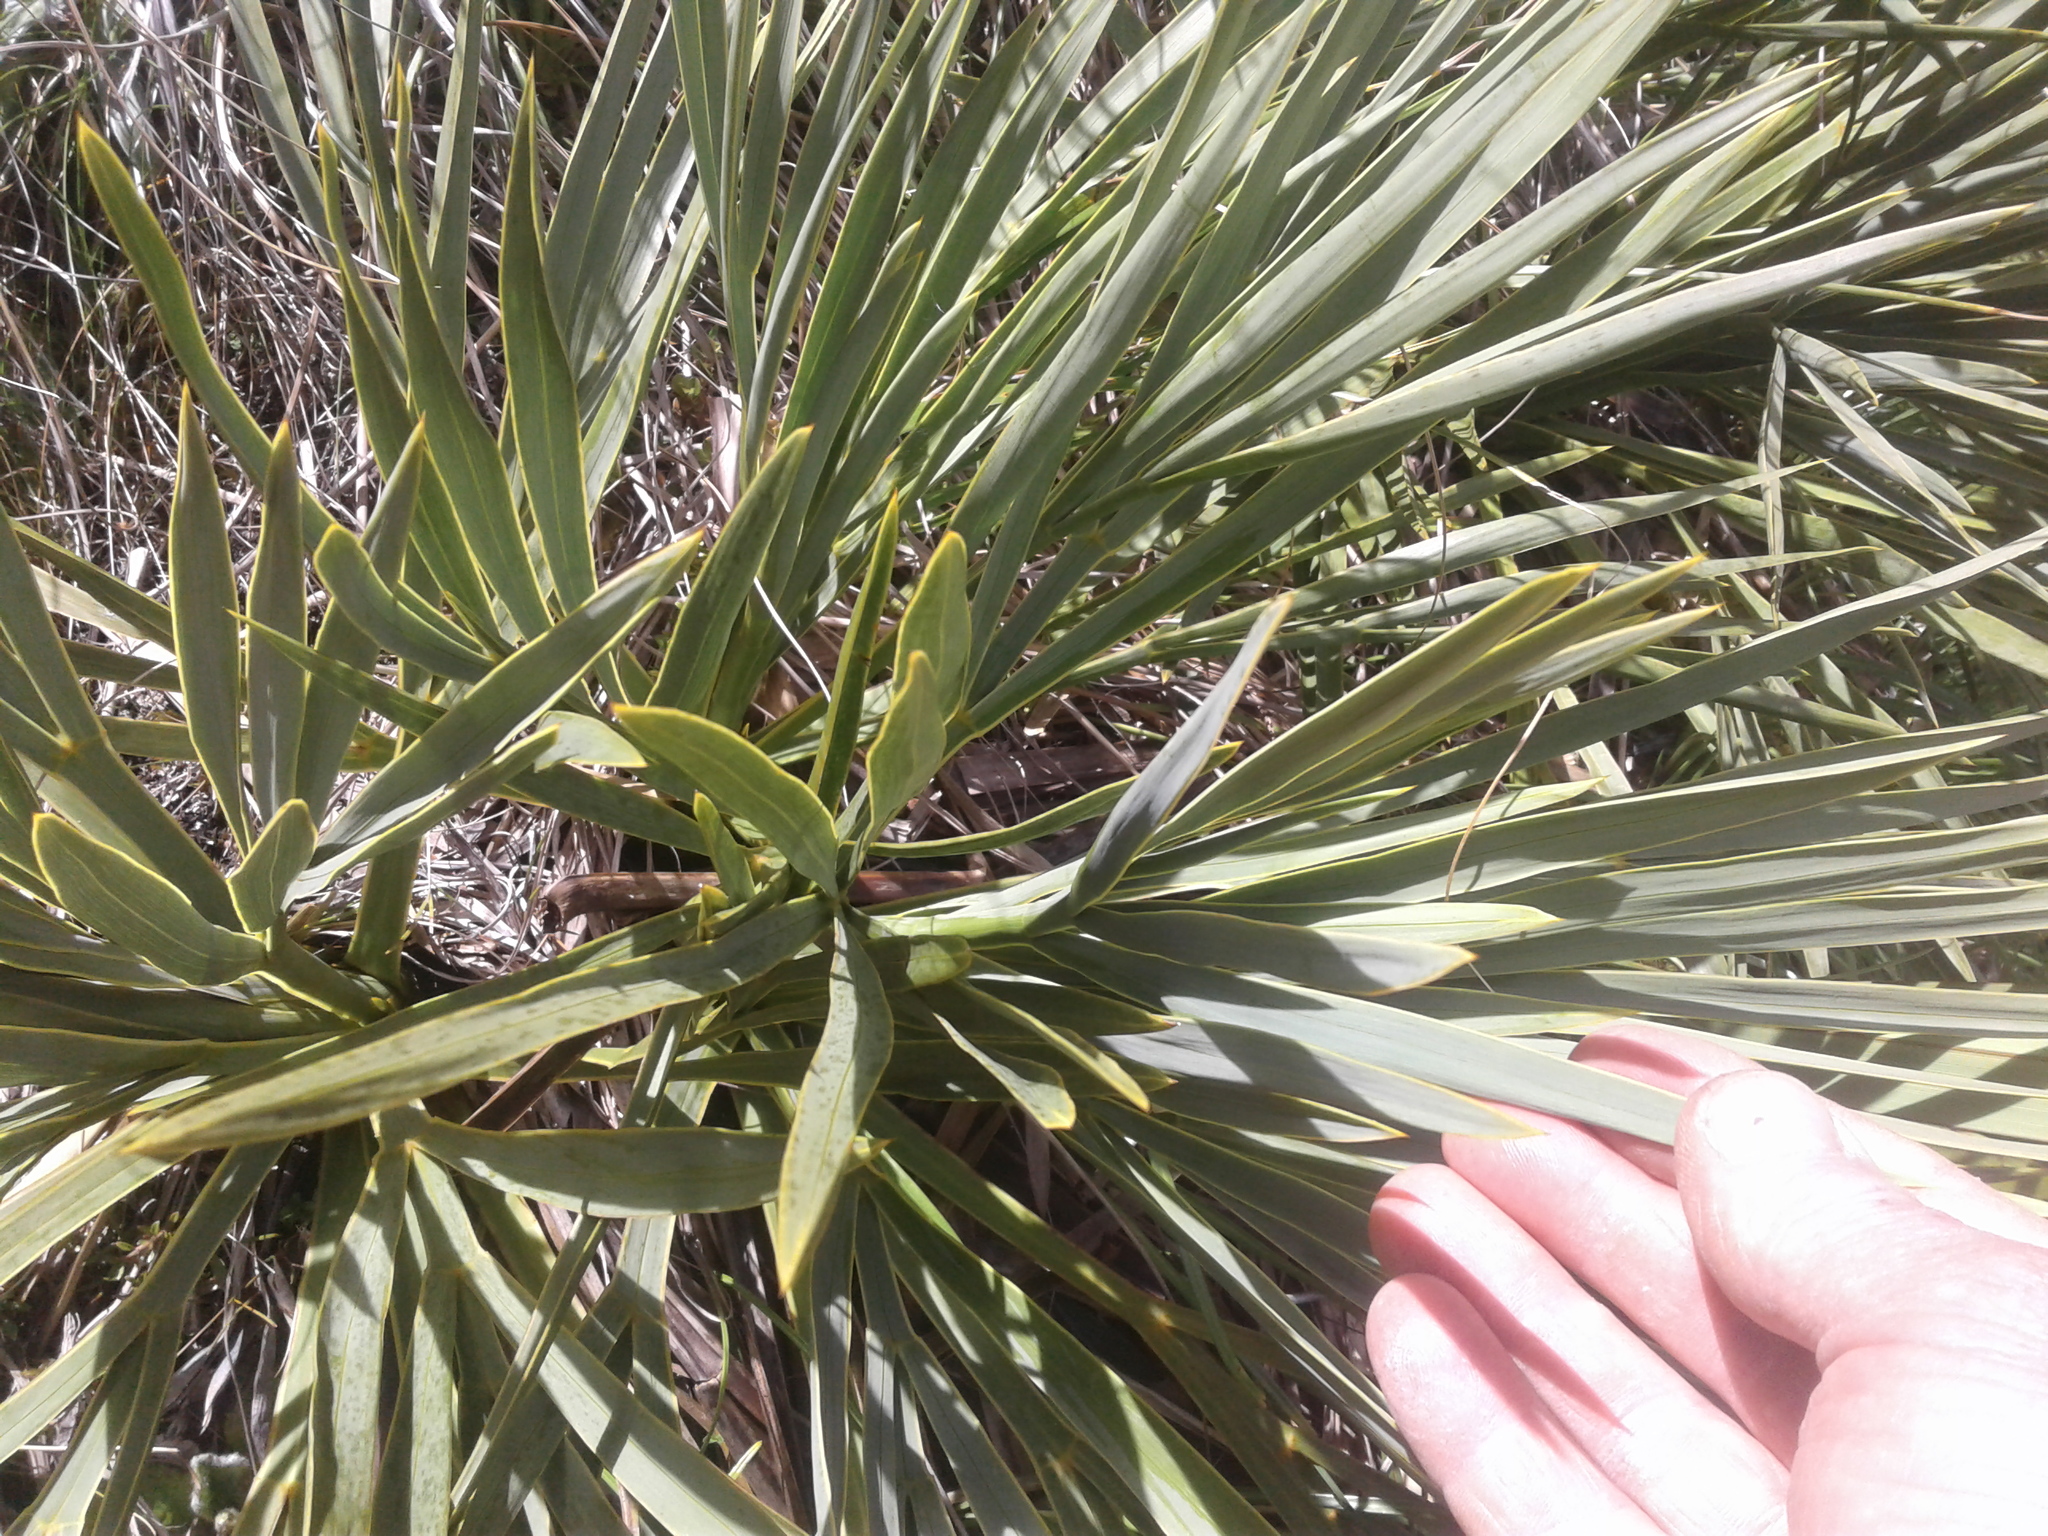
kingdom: Plantae
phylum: Tracheophyta
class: Magnoliopsida
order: Apiales
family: Apiaceae
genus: Aciphylla
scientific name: Aciphylla ferox
